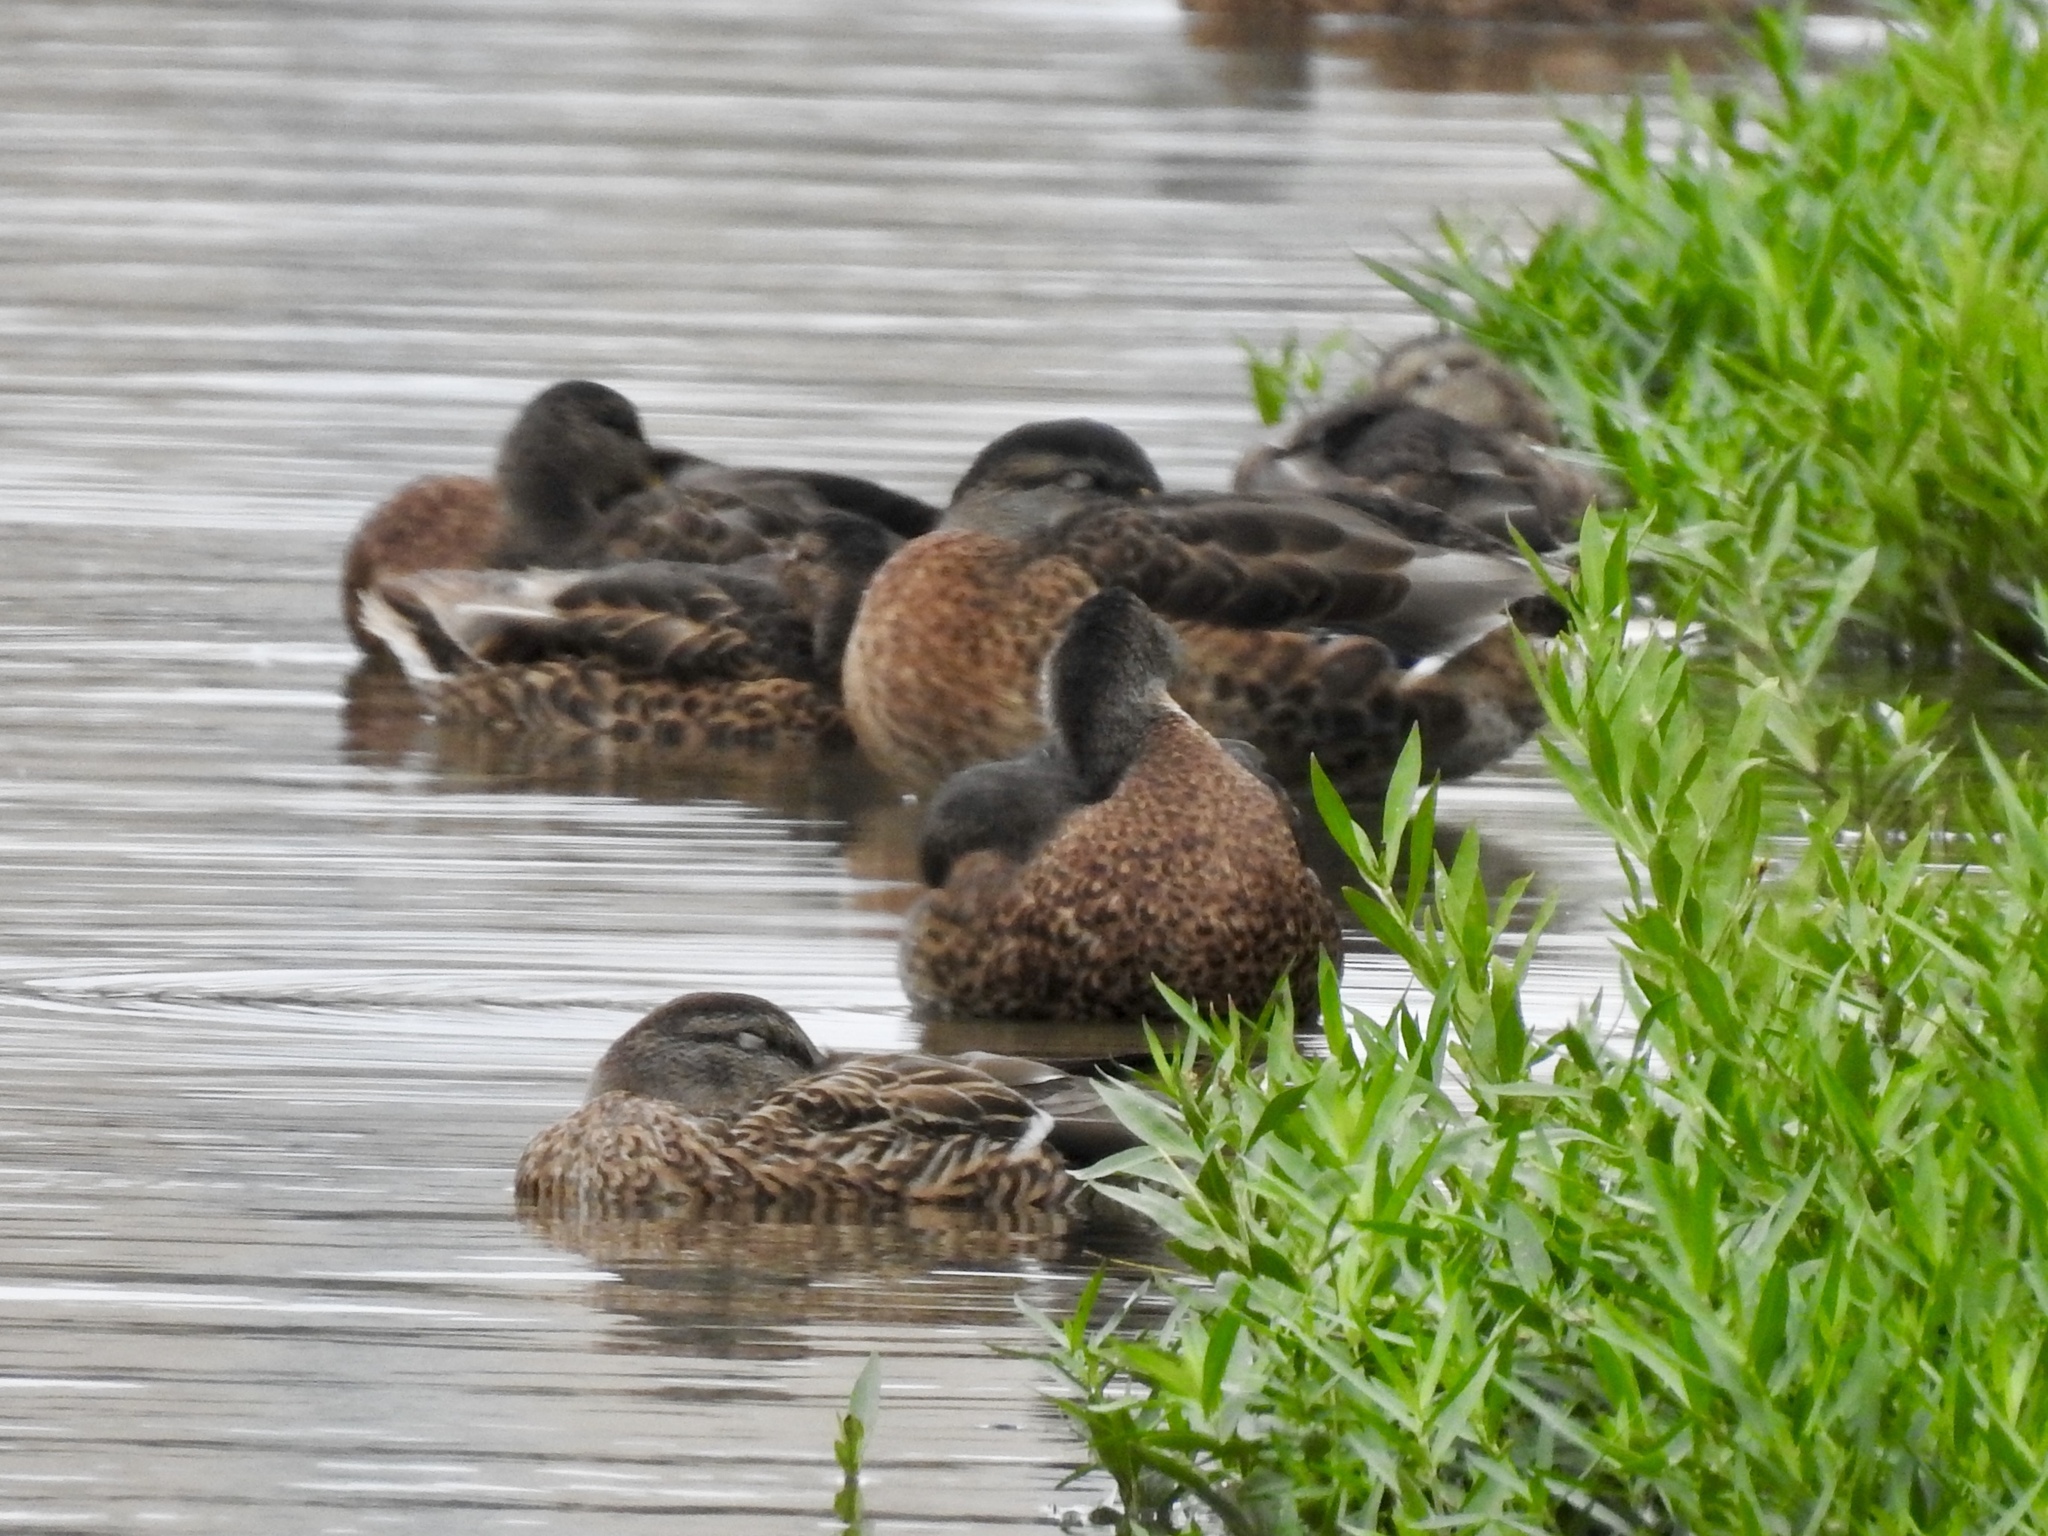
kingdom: Animalia
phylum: Chordata
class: Aves
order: Anseriformes
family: Anatidae
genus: Anas
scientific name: Anas platyrhynchos
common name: Mallard
